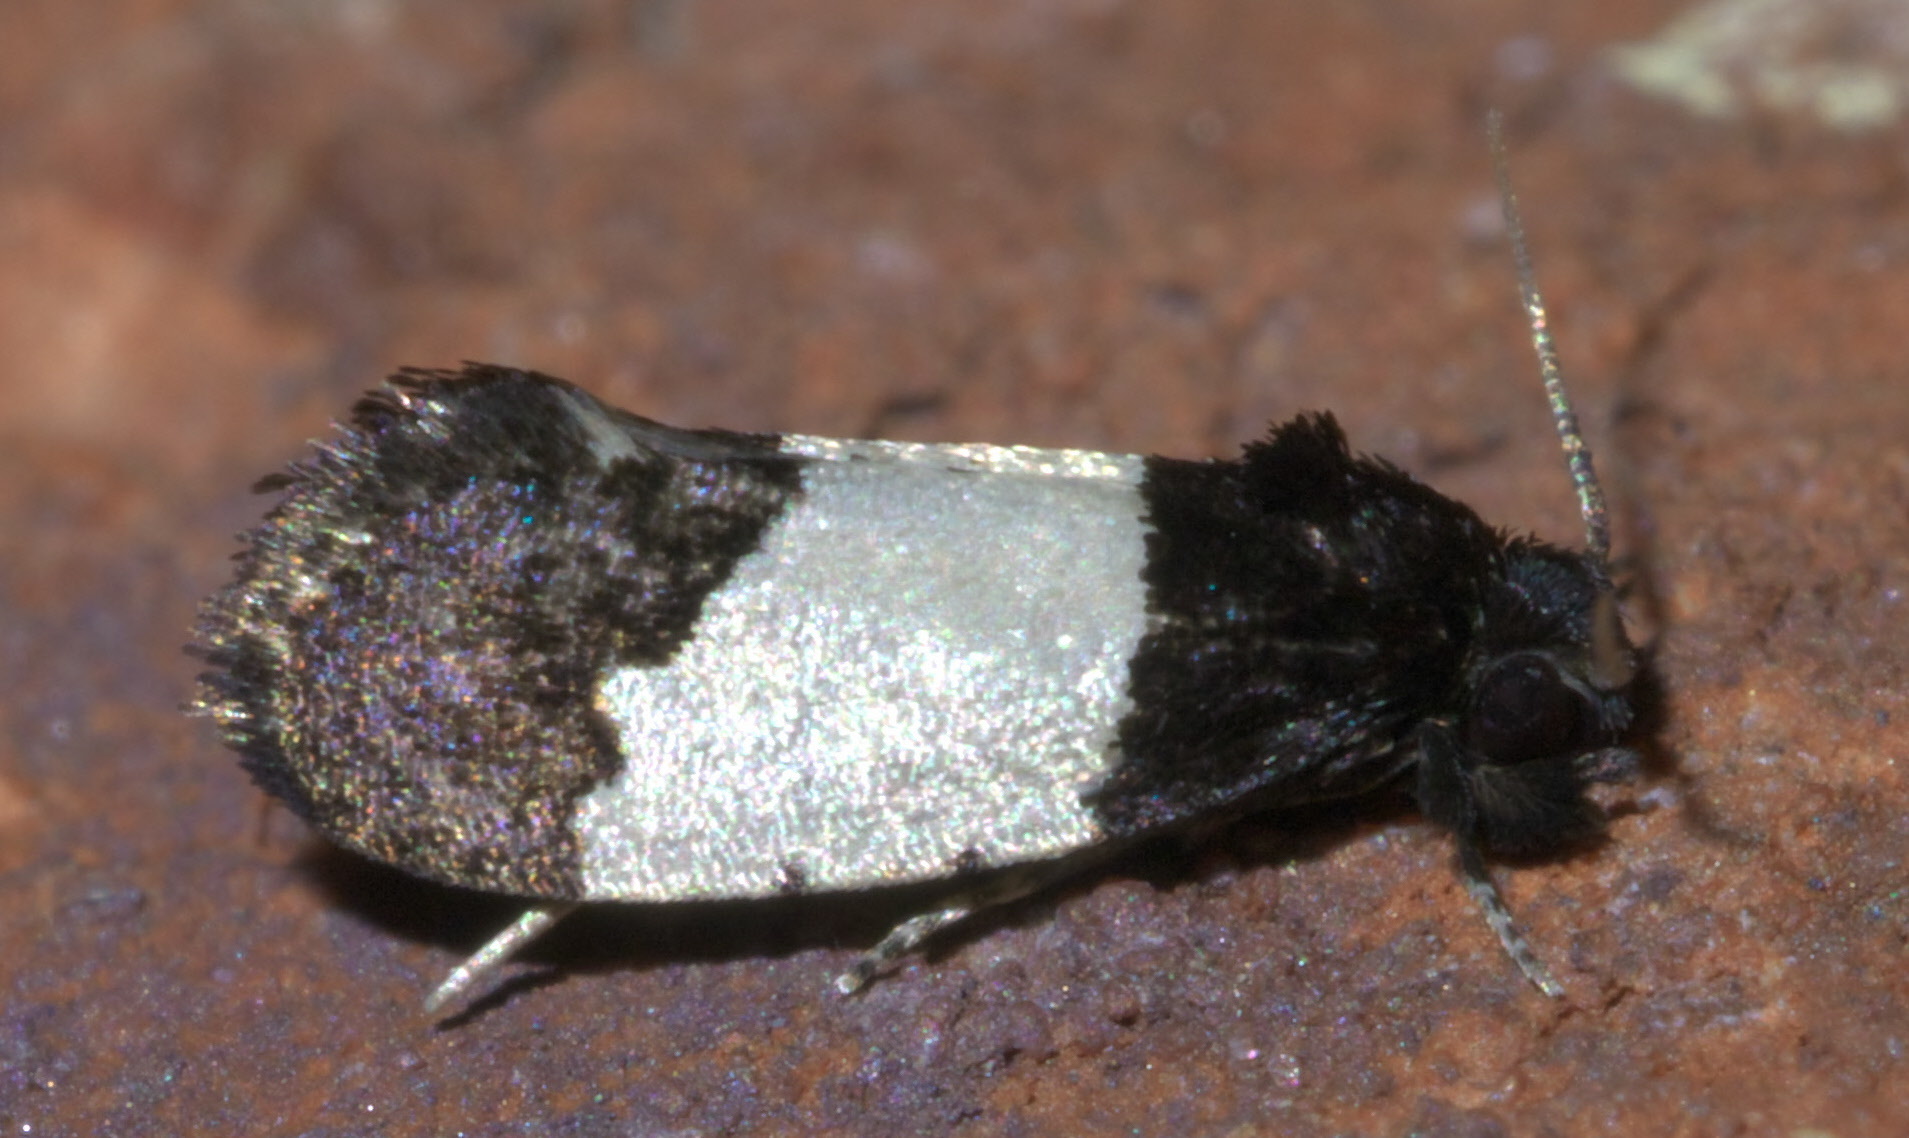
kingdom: Animalia
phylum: Arthropoda
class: Insecta
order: Lepidoptera
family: Psychidae
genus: Kearfottia
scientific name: Kearfottia albifasciella
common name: White-patched kearfottia
